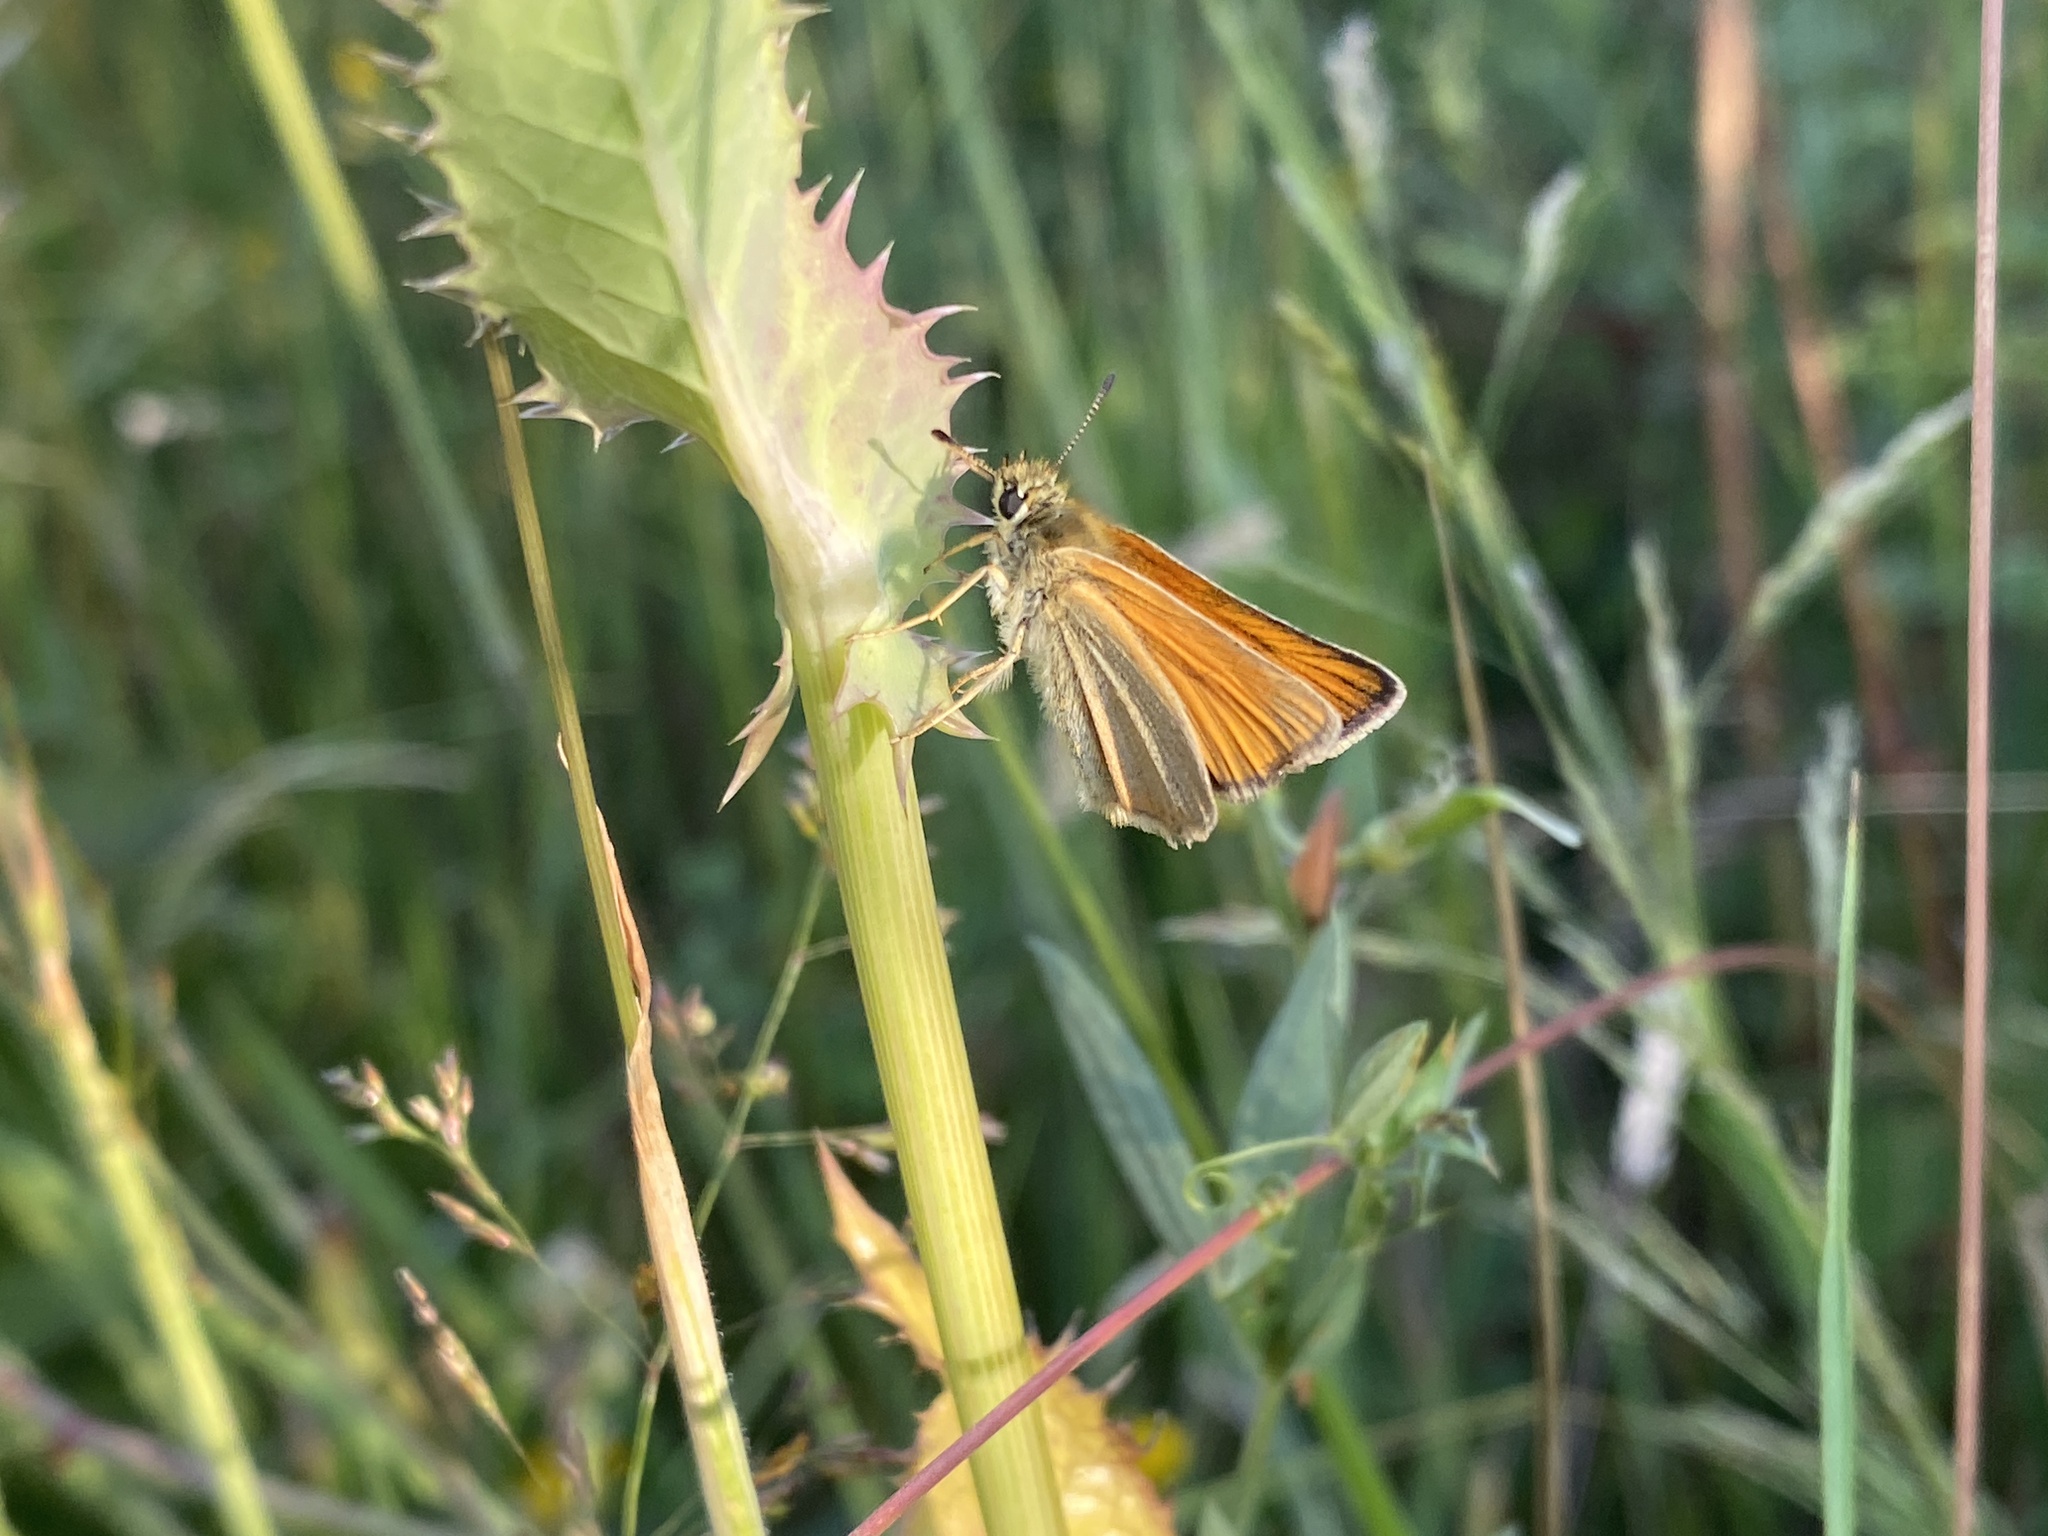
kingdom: Animalia
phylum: Arthropoda
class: Insecta
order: Lepidoptera
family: Hesperiidae
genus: Thymelicus
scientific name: Thymelicus lineola
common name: Essex skipper
